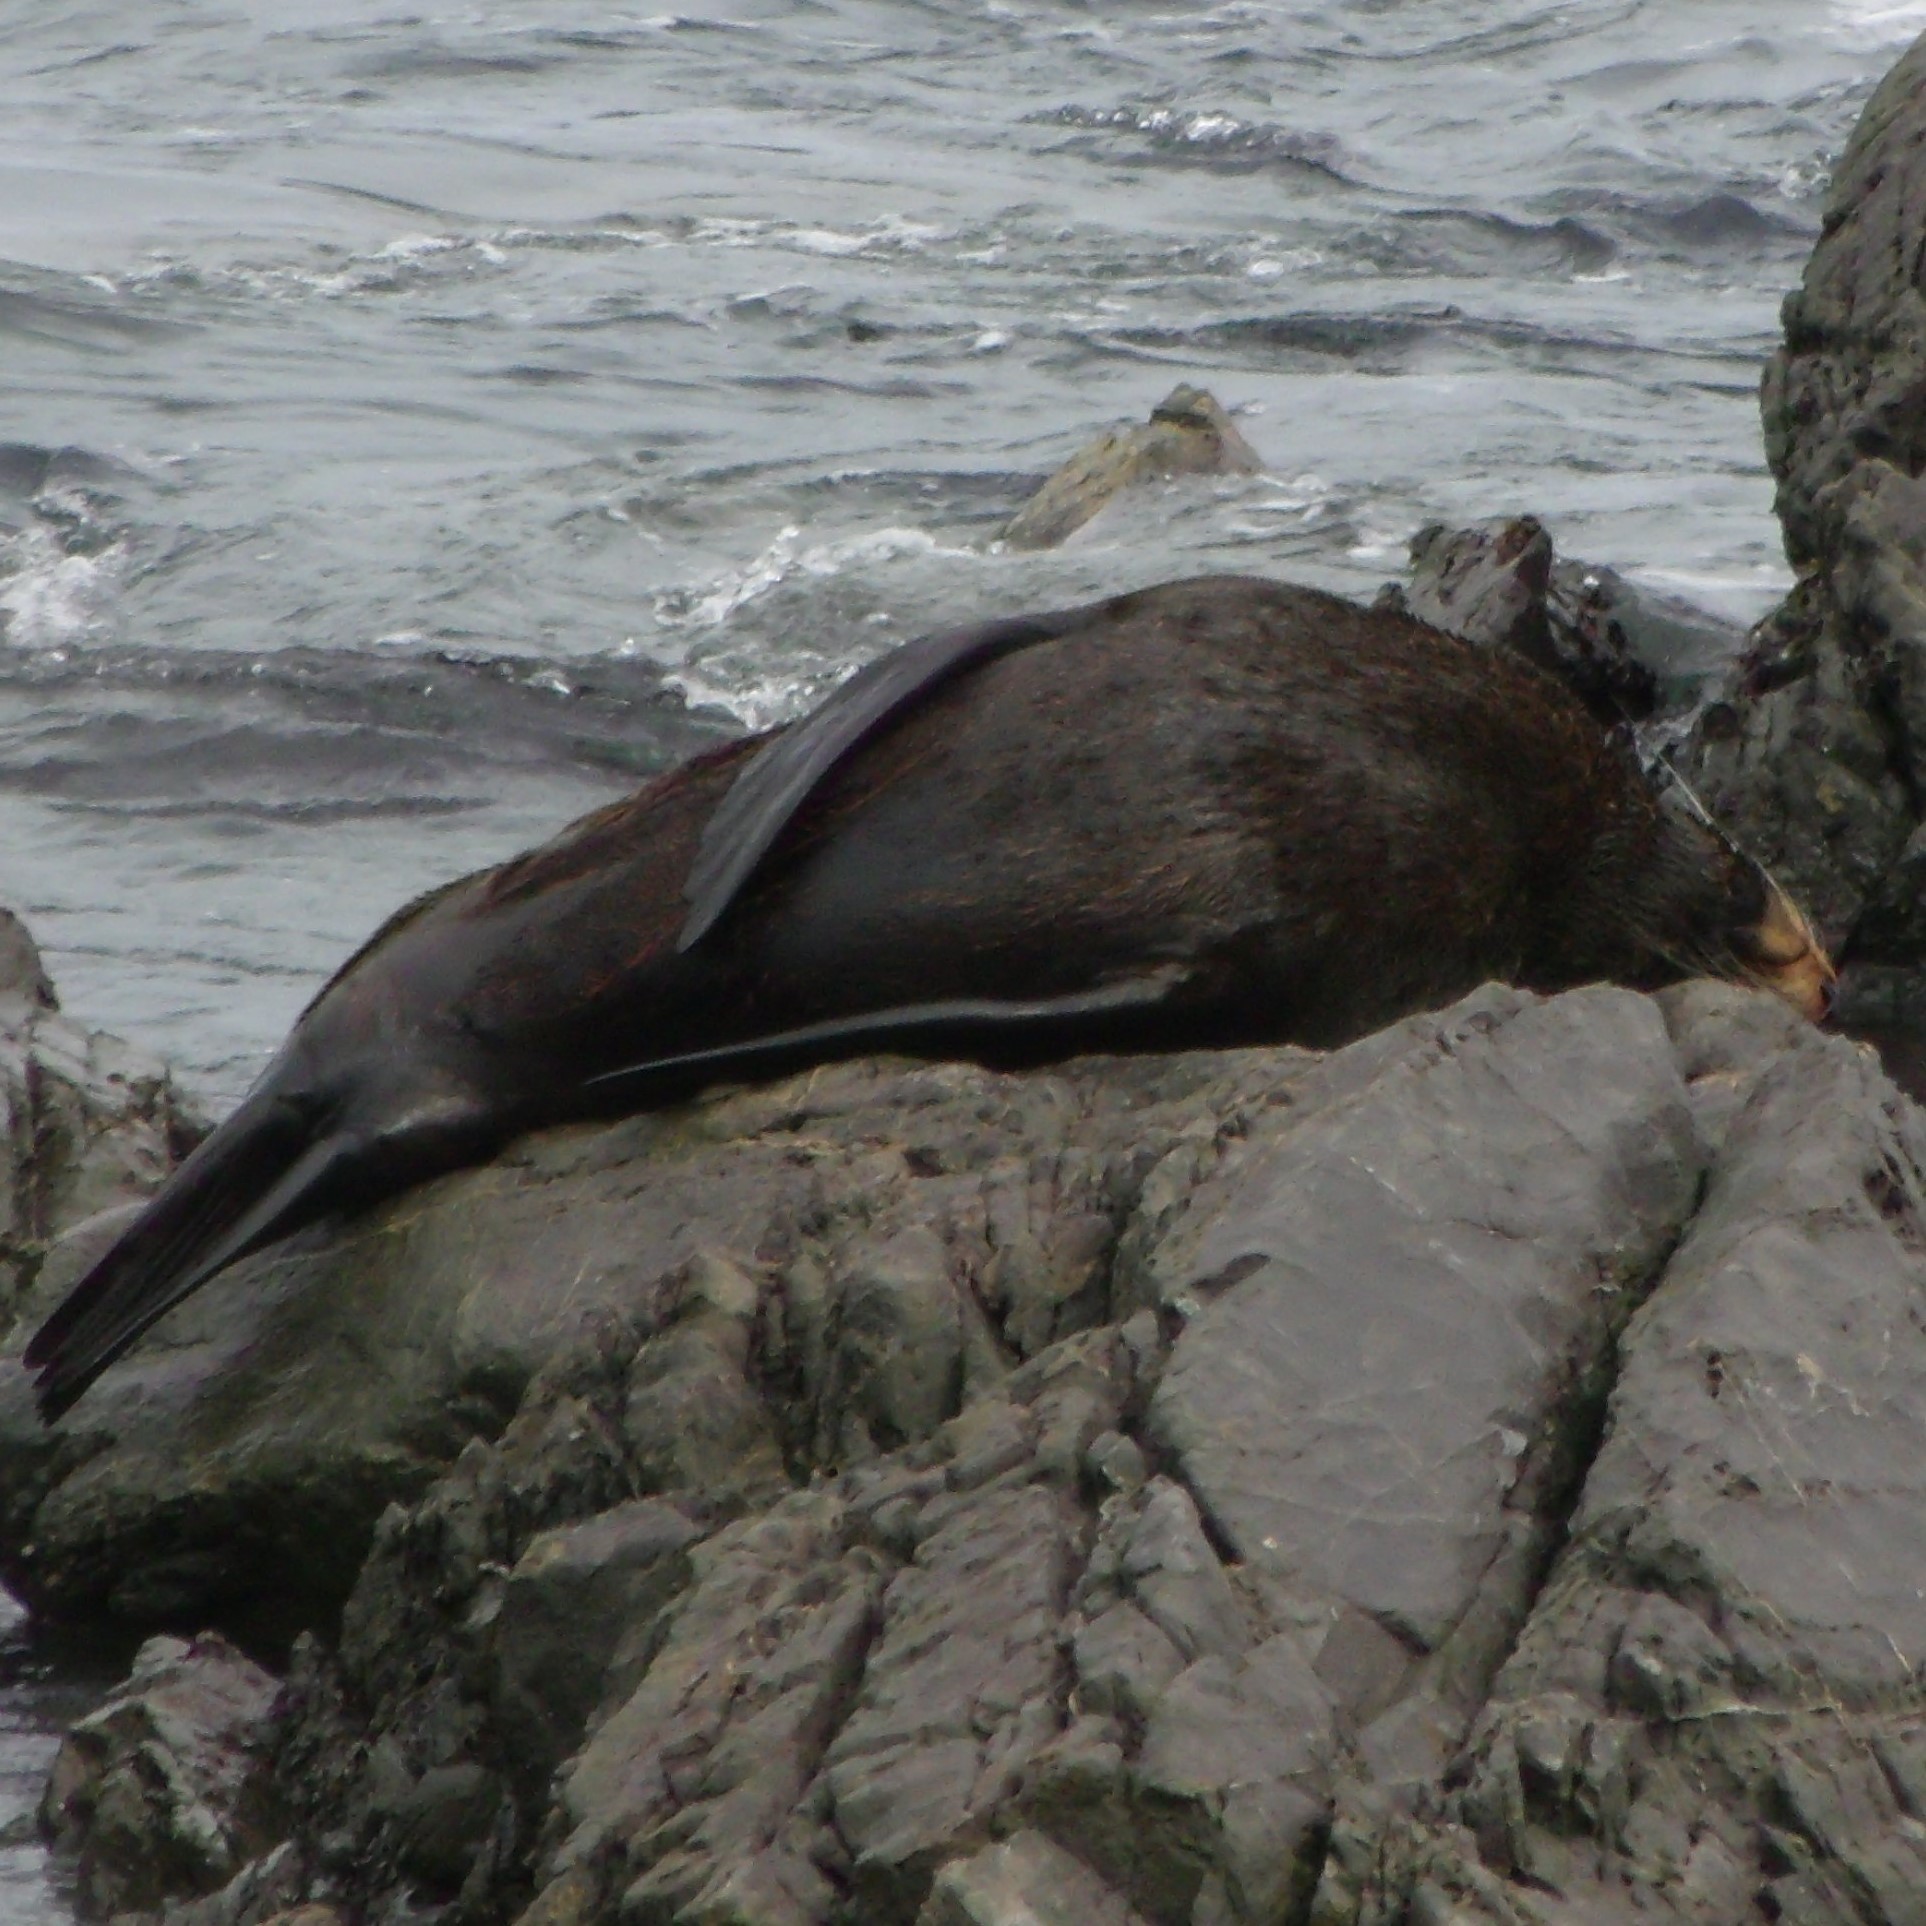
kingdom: Animalia
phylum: Chordata
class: Mammalia
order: Carnivora
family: Otariidae
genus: Arctocephalus
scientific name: Arctocephalus forsteri
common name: New zealand fur seal
